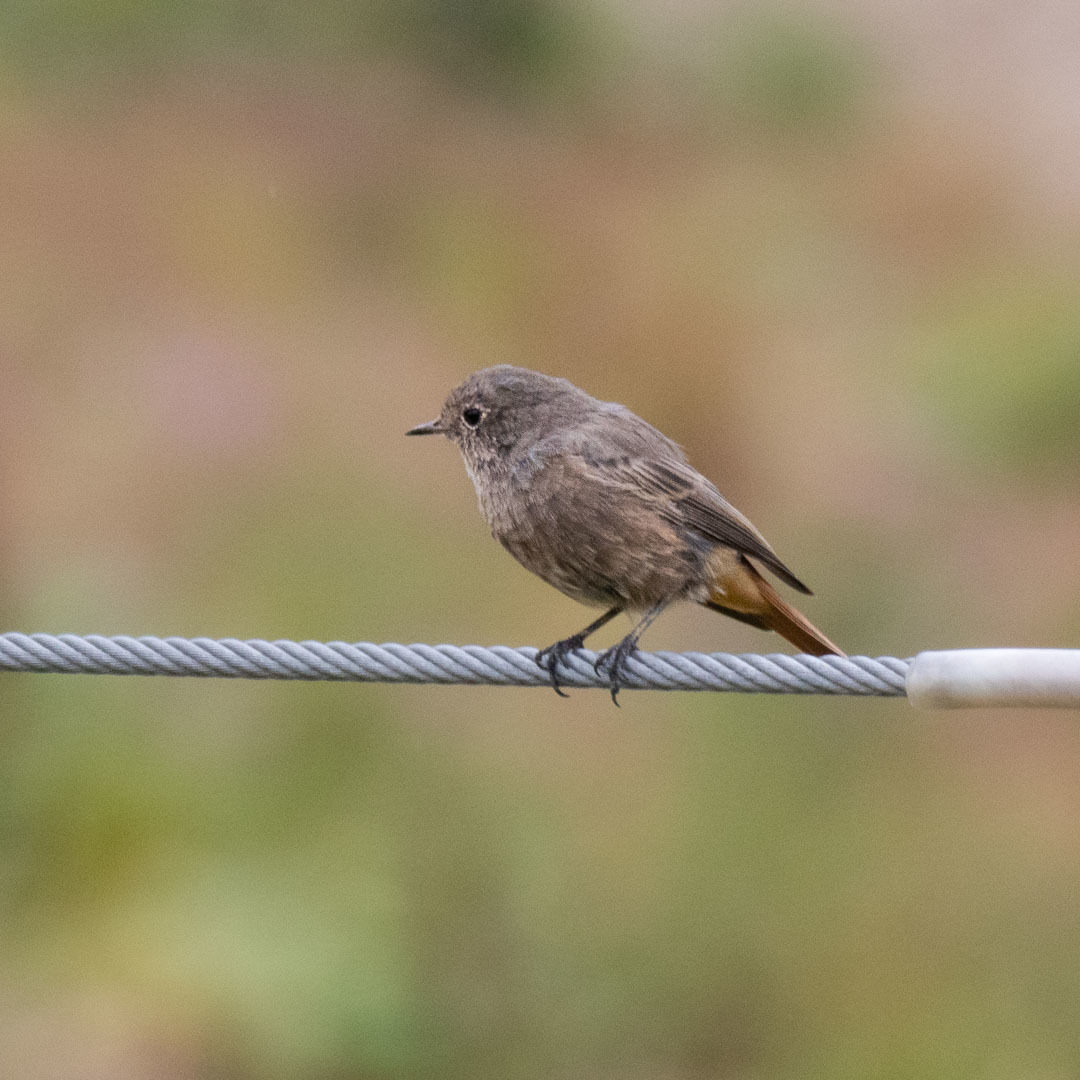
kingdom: Animalia
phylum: Chordata
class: Aves
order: Passeriformes
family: Muscicapidae
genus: Phoenicurus
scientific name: Phoenicurus ochruros
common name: Black redstart
